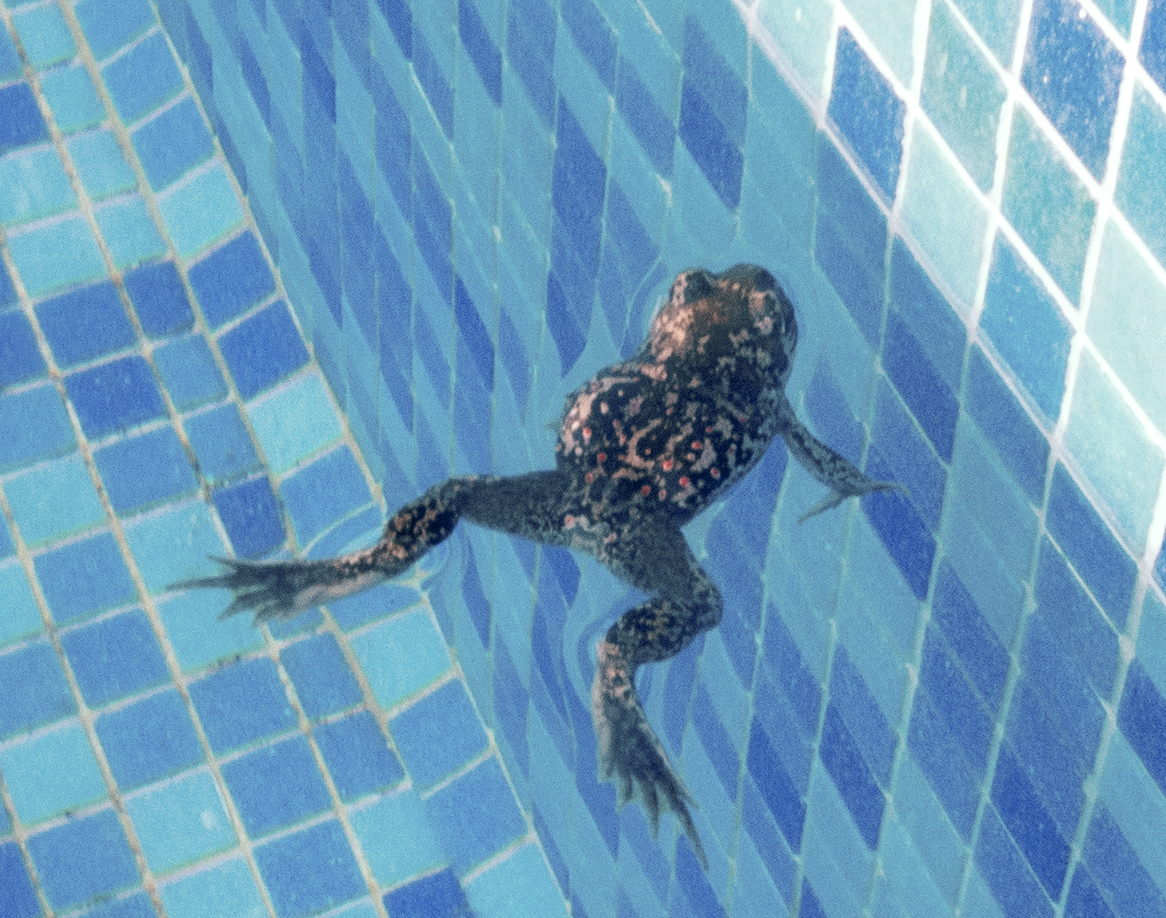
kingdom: Animalia
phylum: Chordata
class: Amphibia
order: Anura
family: Pelobatidae
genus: Pelobates
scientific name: Pelobates balcanicus
